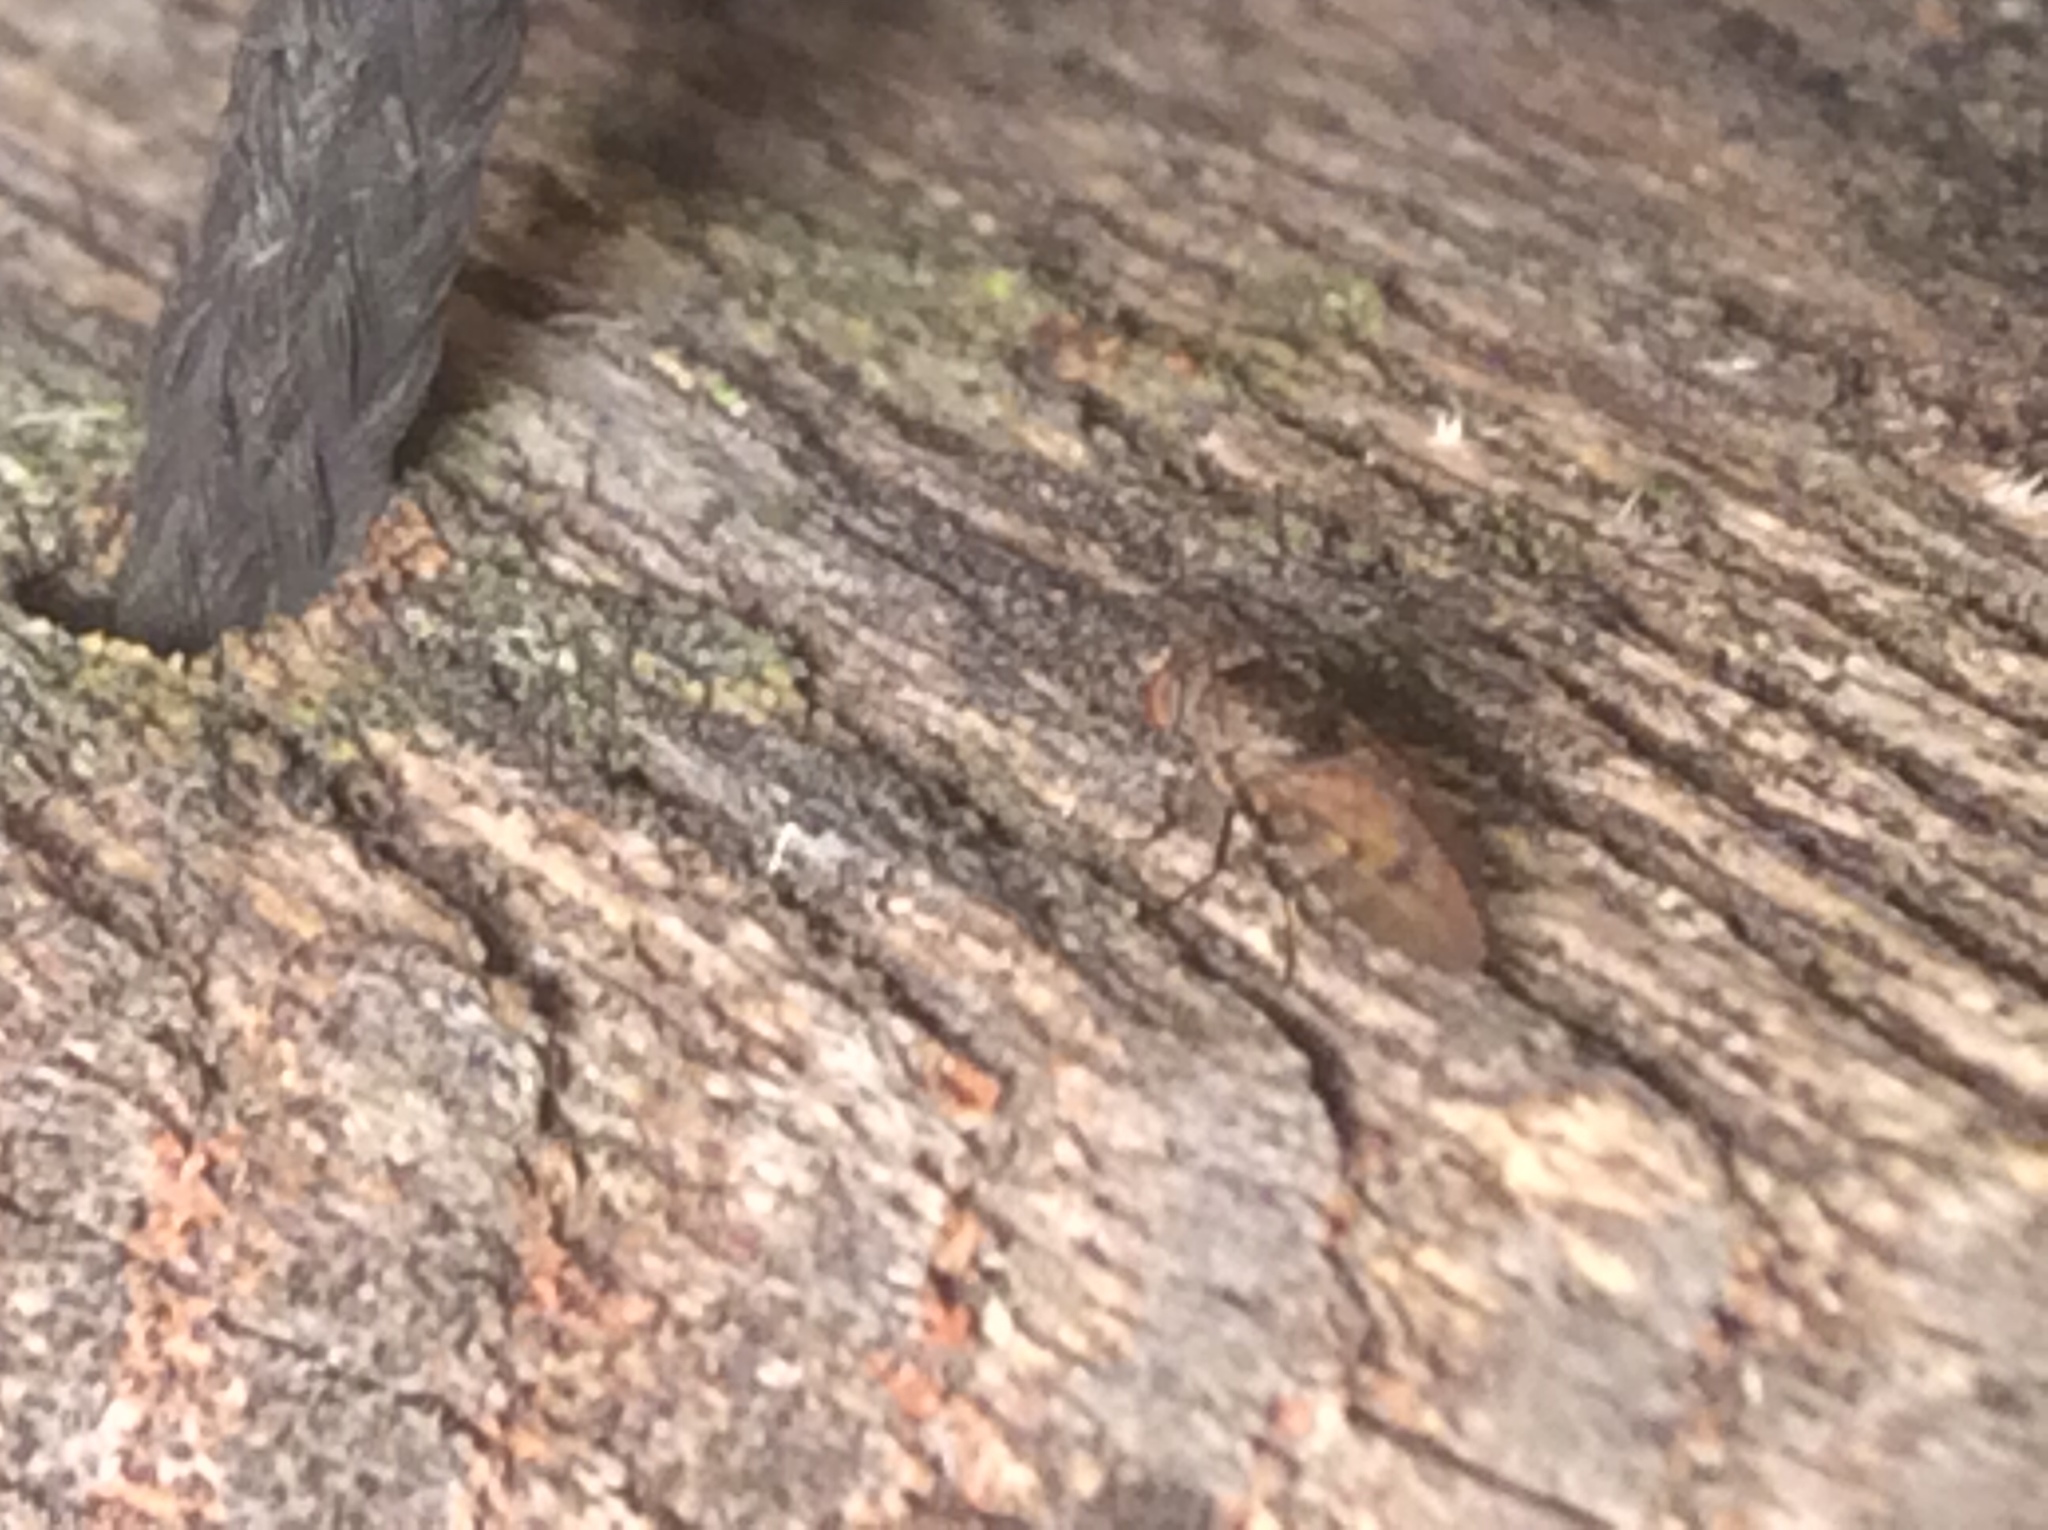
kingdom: Animalia
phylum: Arthropoda
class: Insecta
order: Diptera
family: Ephydridae
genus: Paralimna
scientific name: Paralimna punctipennis
